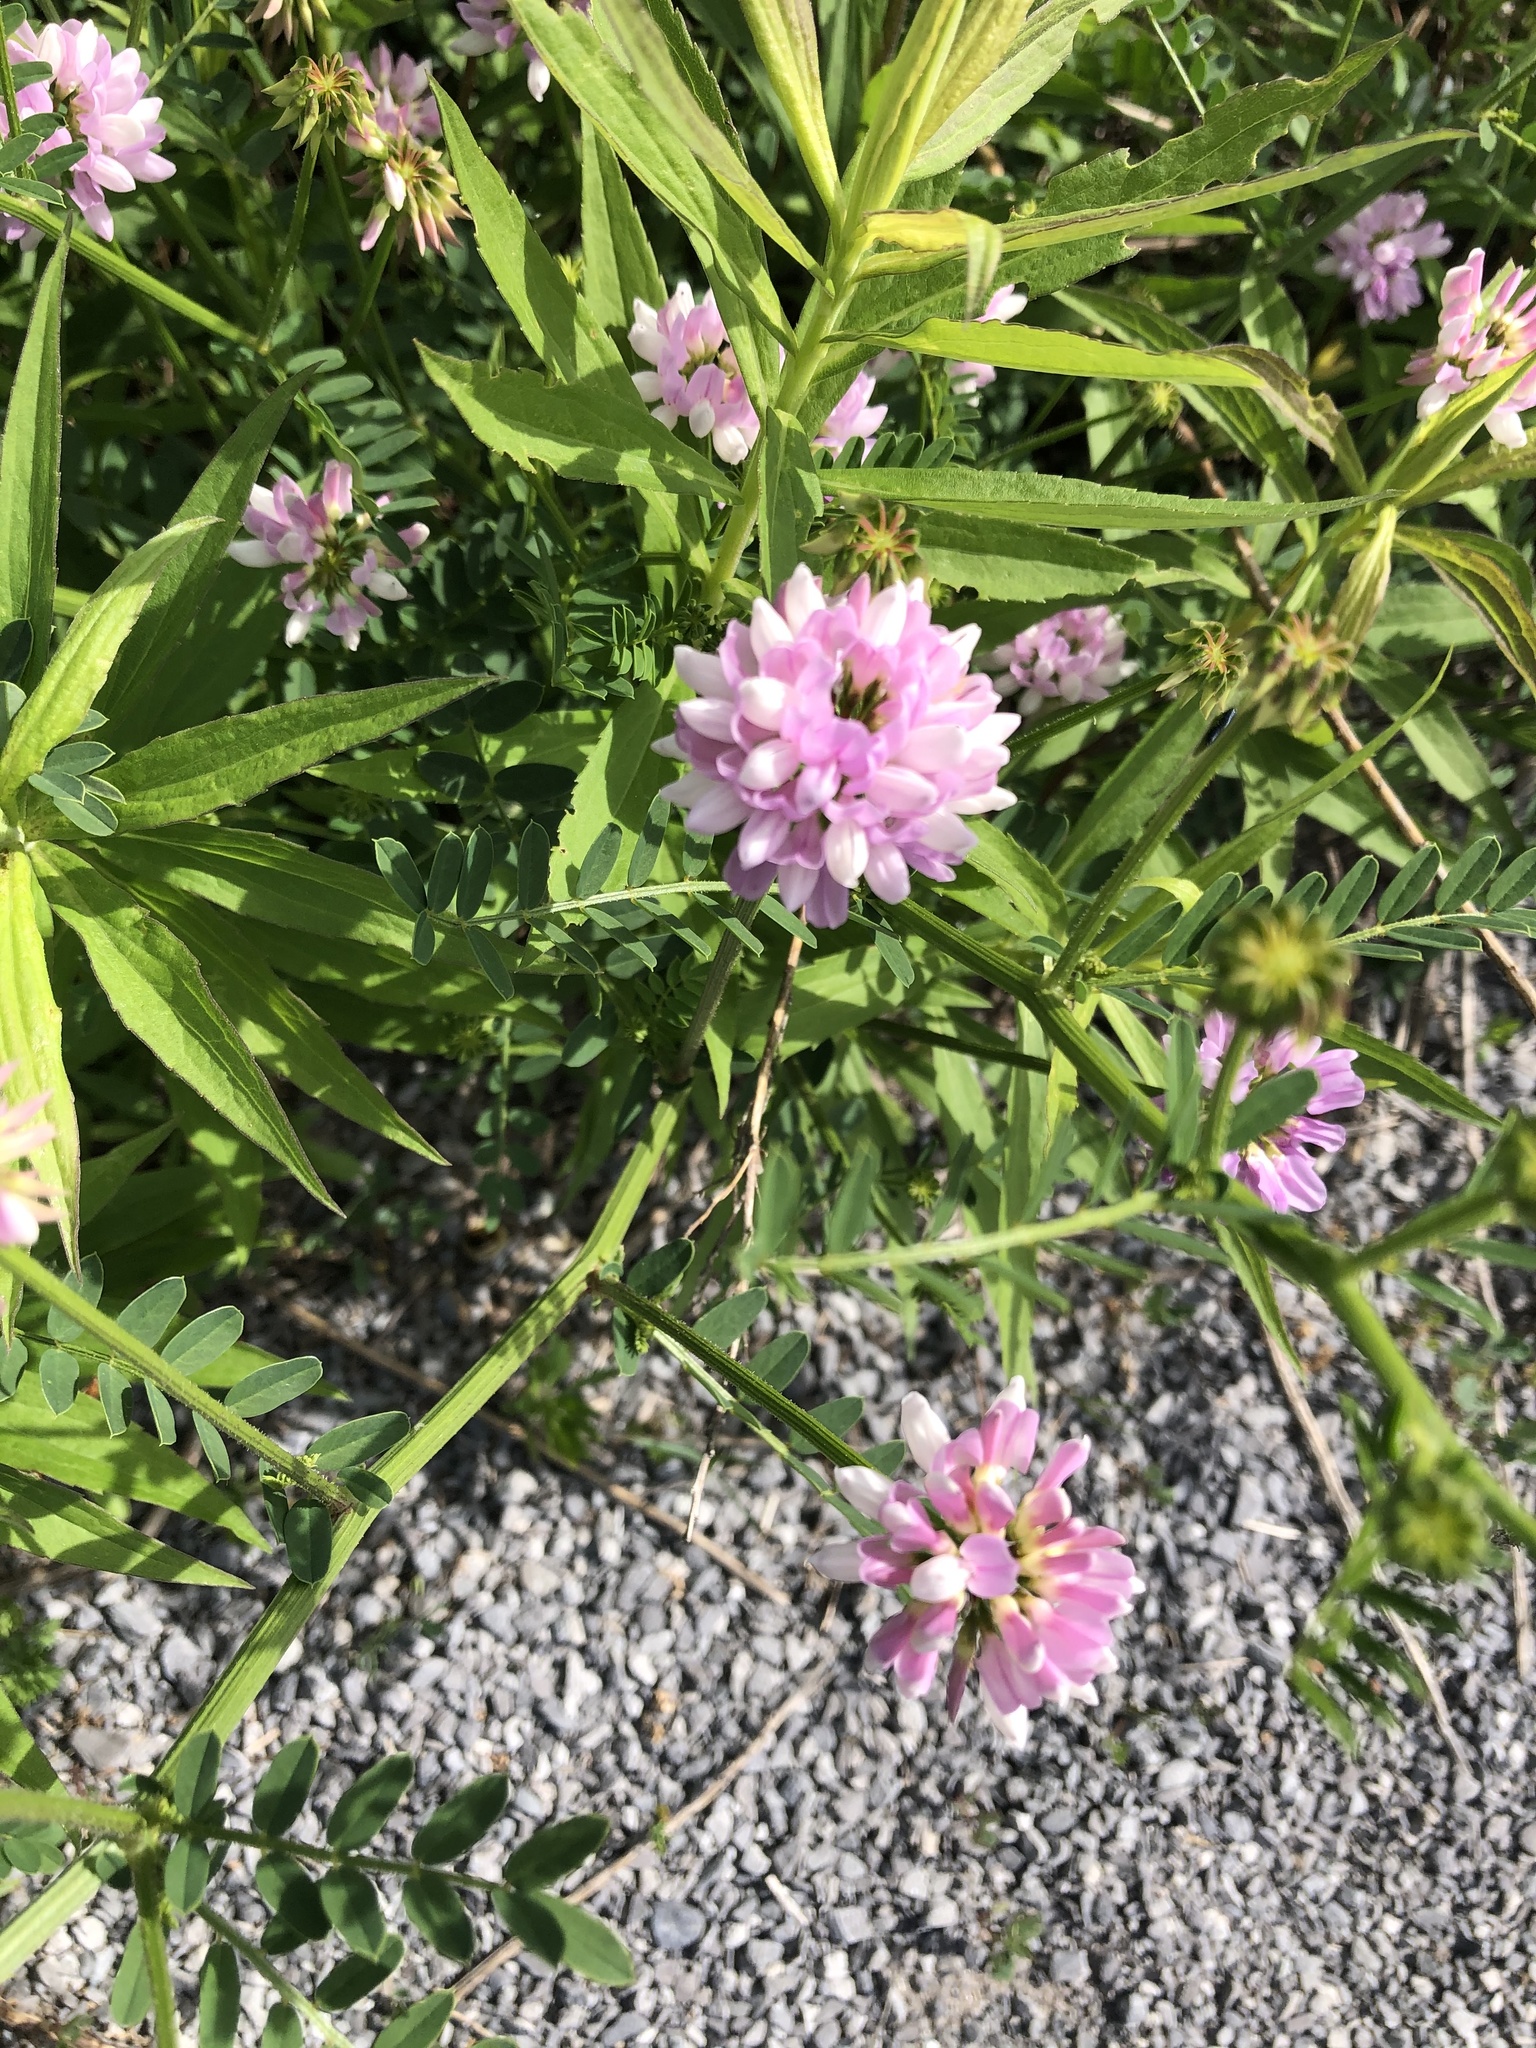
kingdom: Plantae
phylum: Tracheophyta
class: Magnoliopsida
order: Fabales
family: Fabaceae
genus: Coronilla
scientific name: Coronilla varia
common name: Crownvetch
